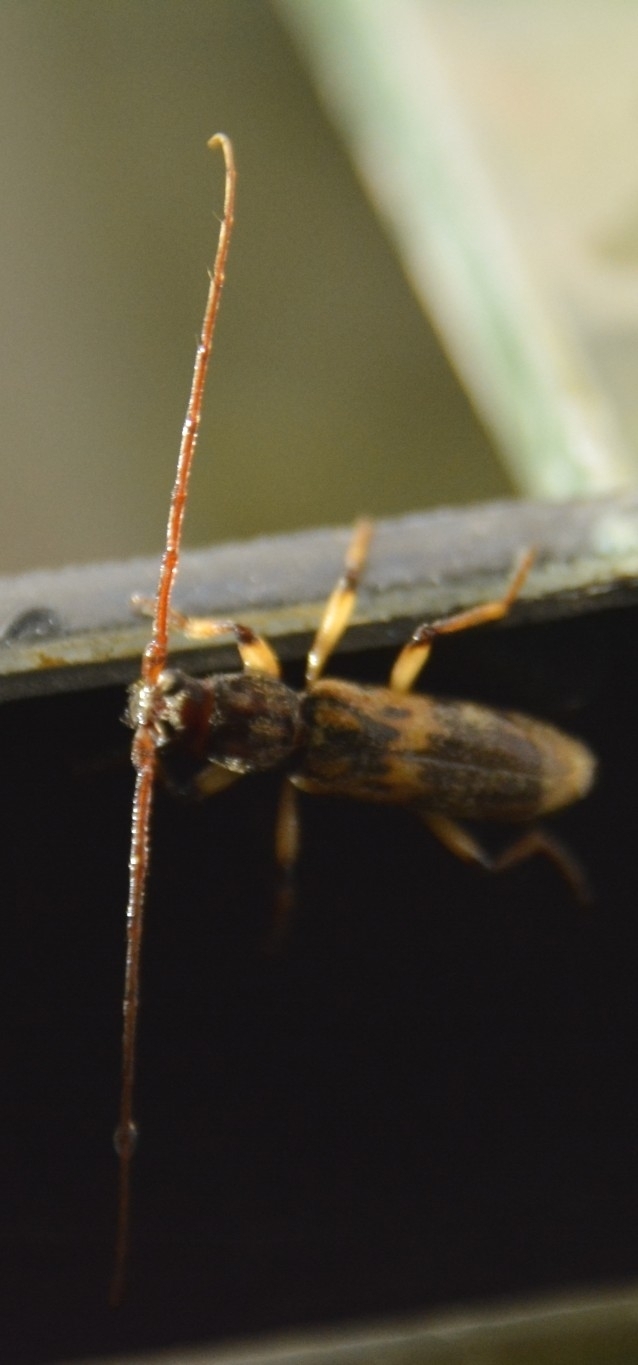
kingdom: Animalia
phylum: Arthropoda
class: Insecta
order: Coleoptera
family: Cerambycidae
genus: Achryson
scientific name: Achryson lutarium
